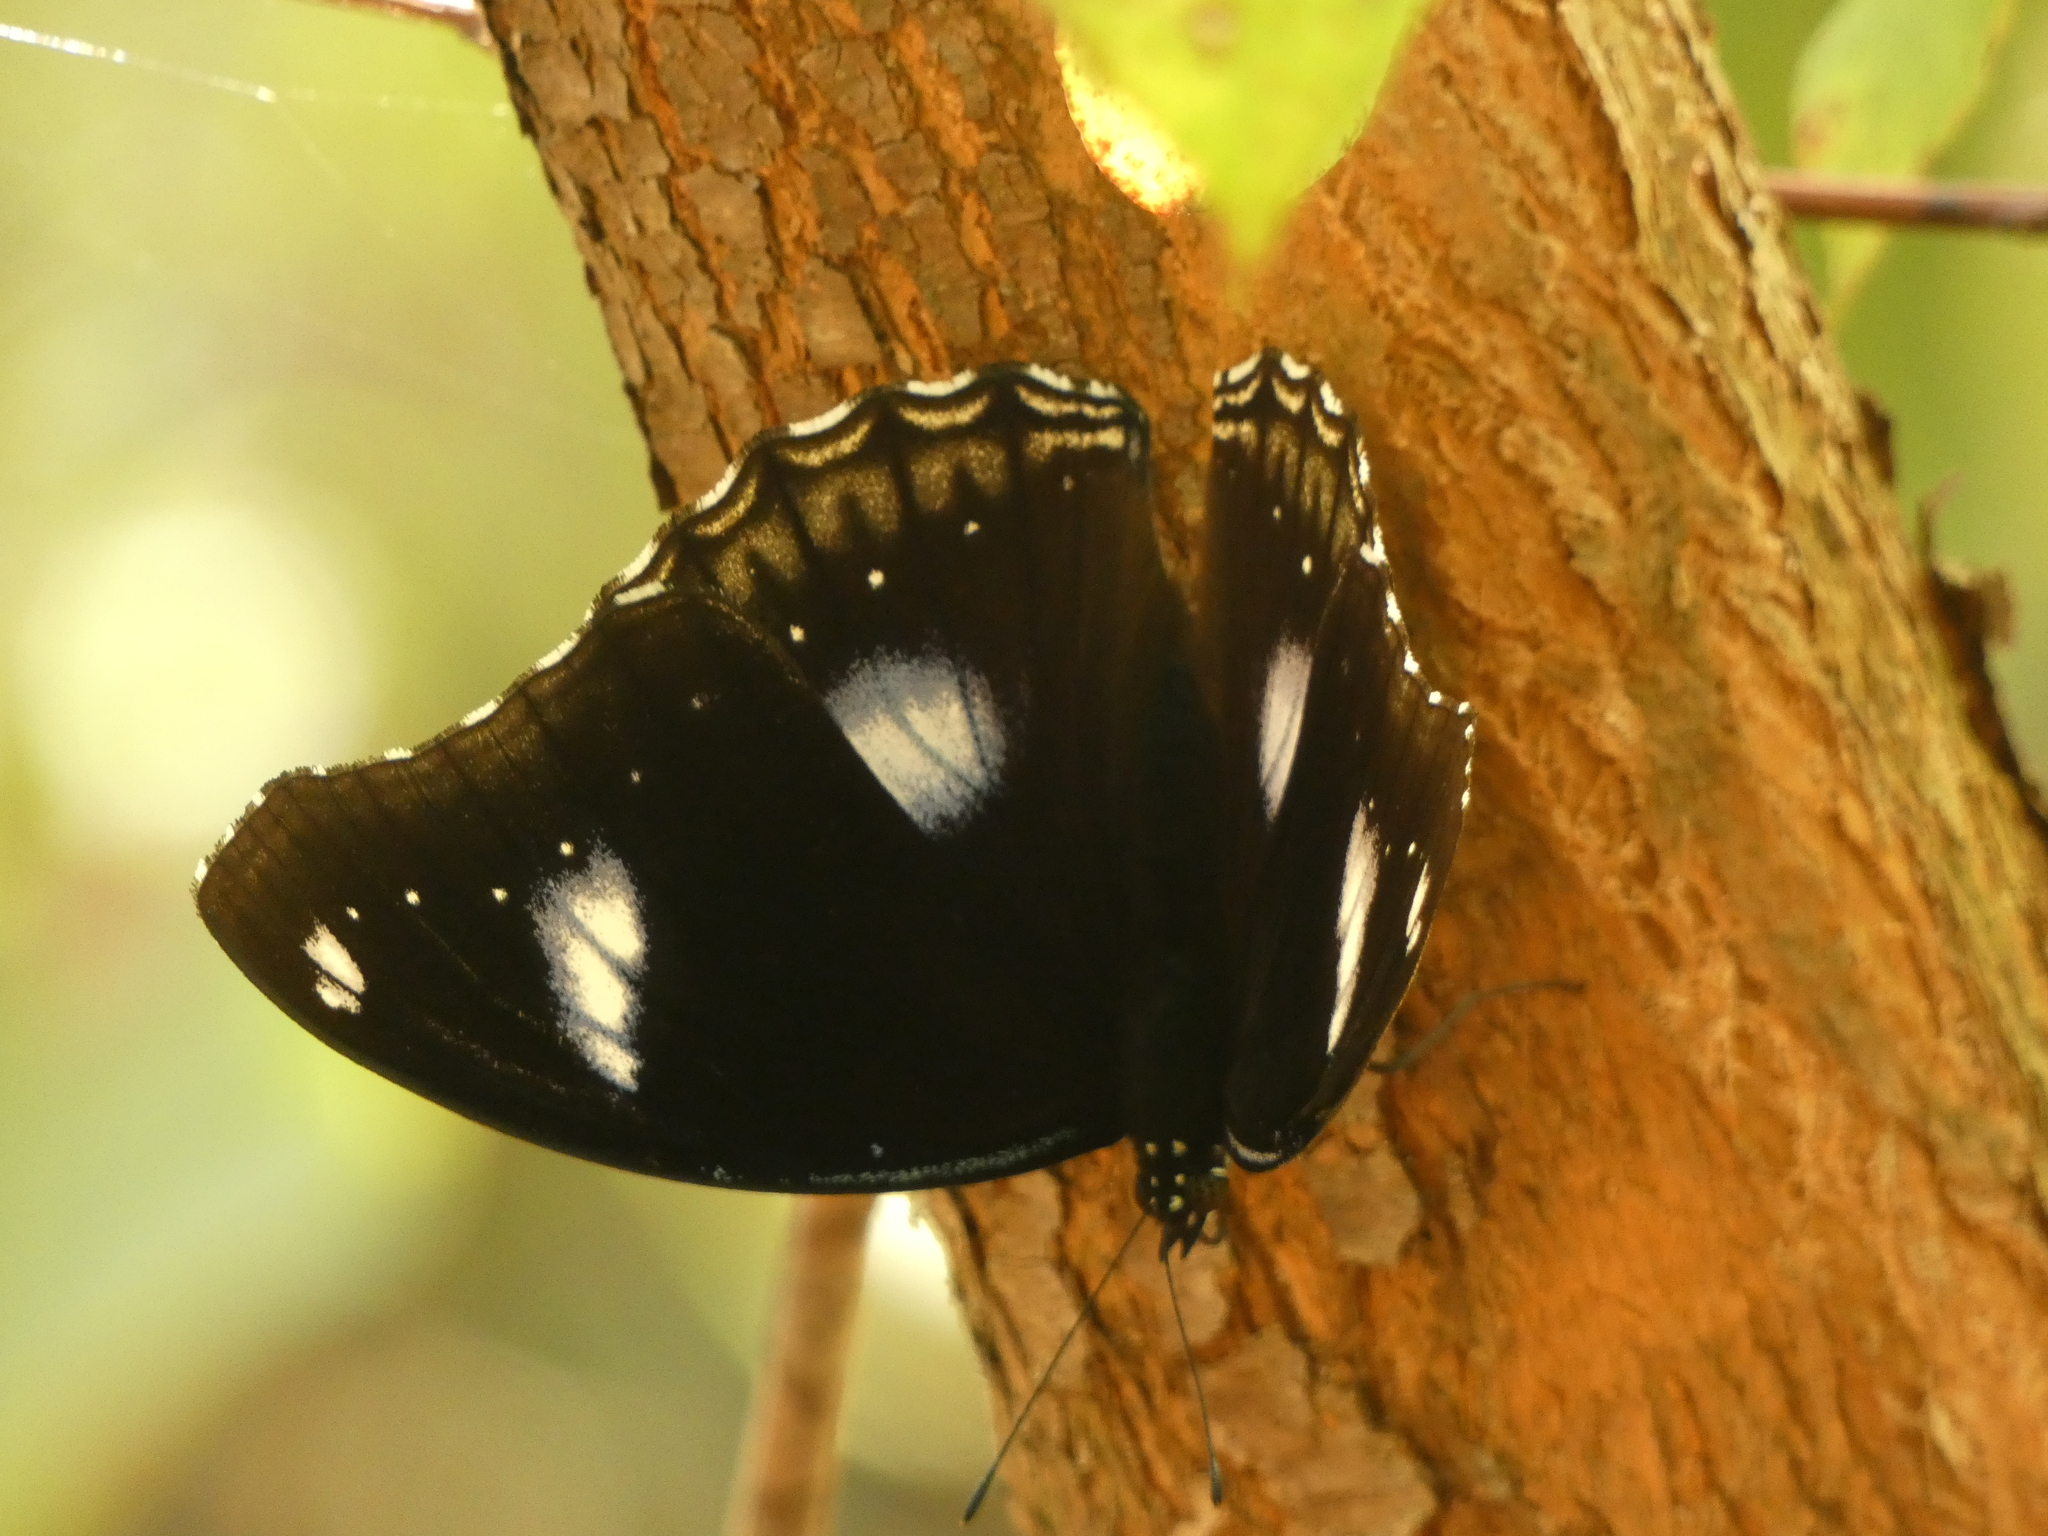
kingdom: Animalia
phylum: Arthropoda
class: Insecta
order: Lepidoptera
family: Nymphalidae
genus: Hypolimnas
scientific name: Hypolimnas bolina
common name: Great eggfly
